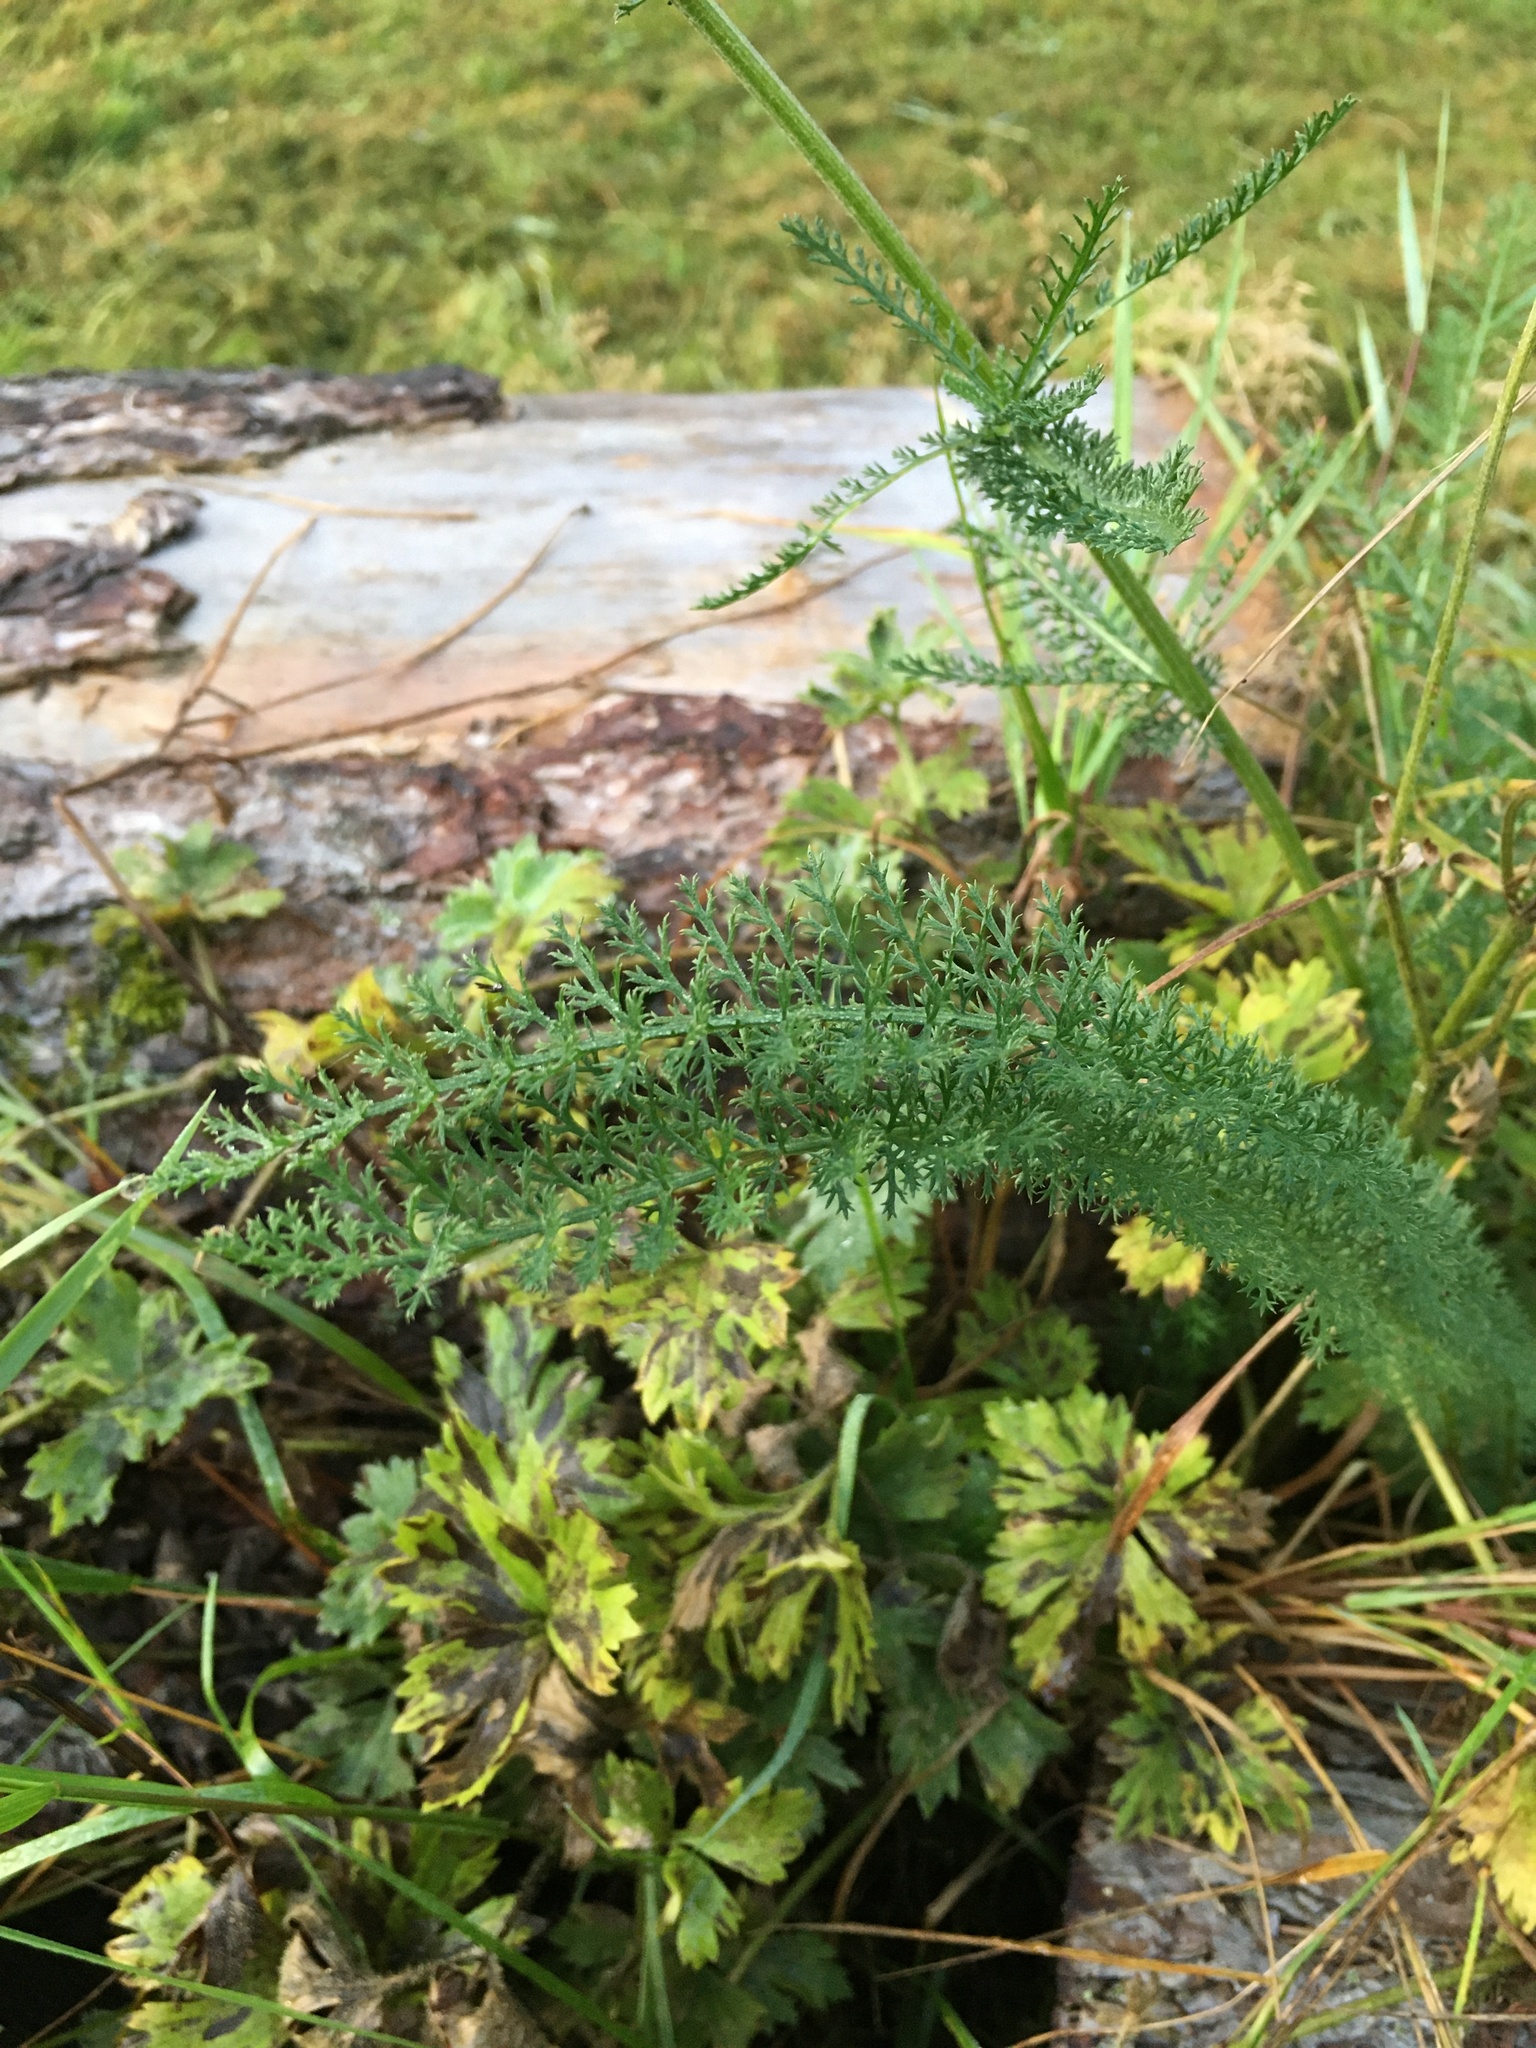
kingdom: Plantae
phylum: Tracheophyta
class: Magnoliopsida
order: Asterales
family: Asteraceae
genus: Achillea
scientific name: Achillea millefolium
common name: Yarrow
